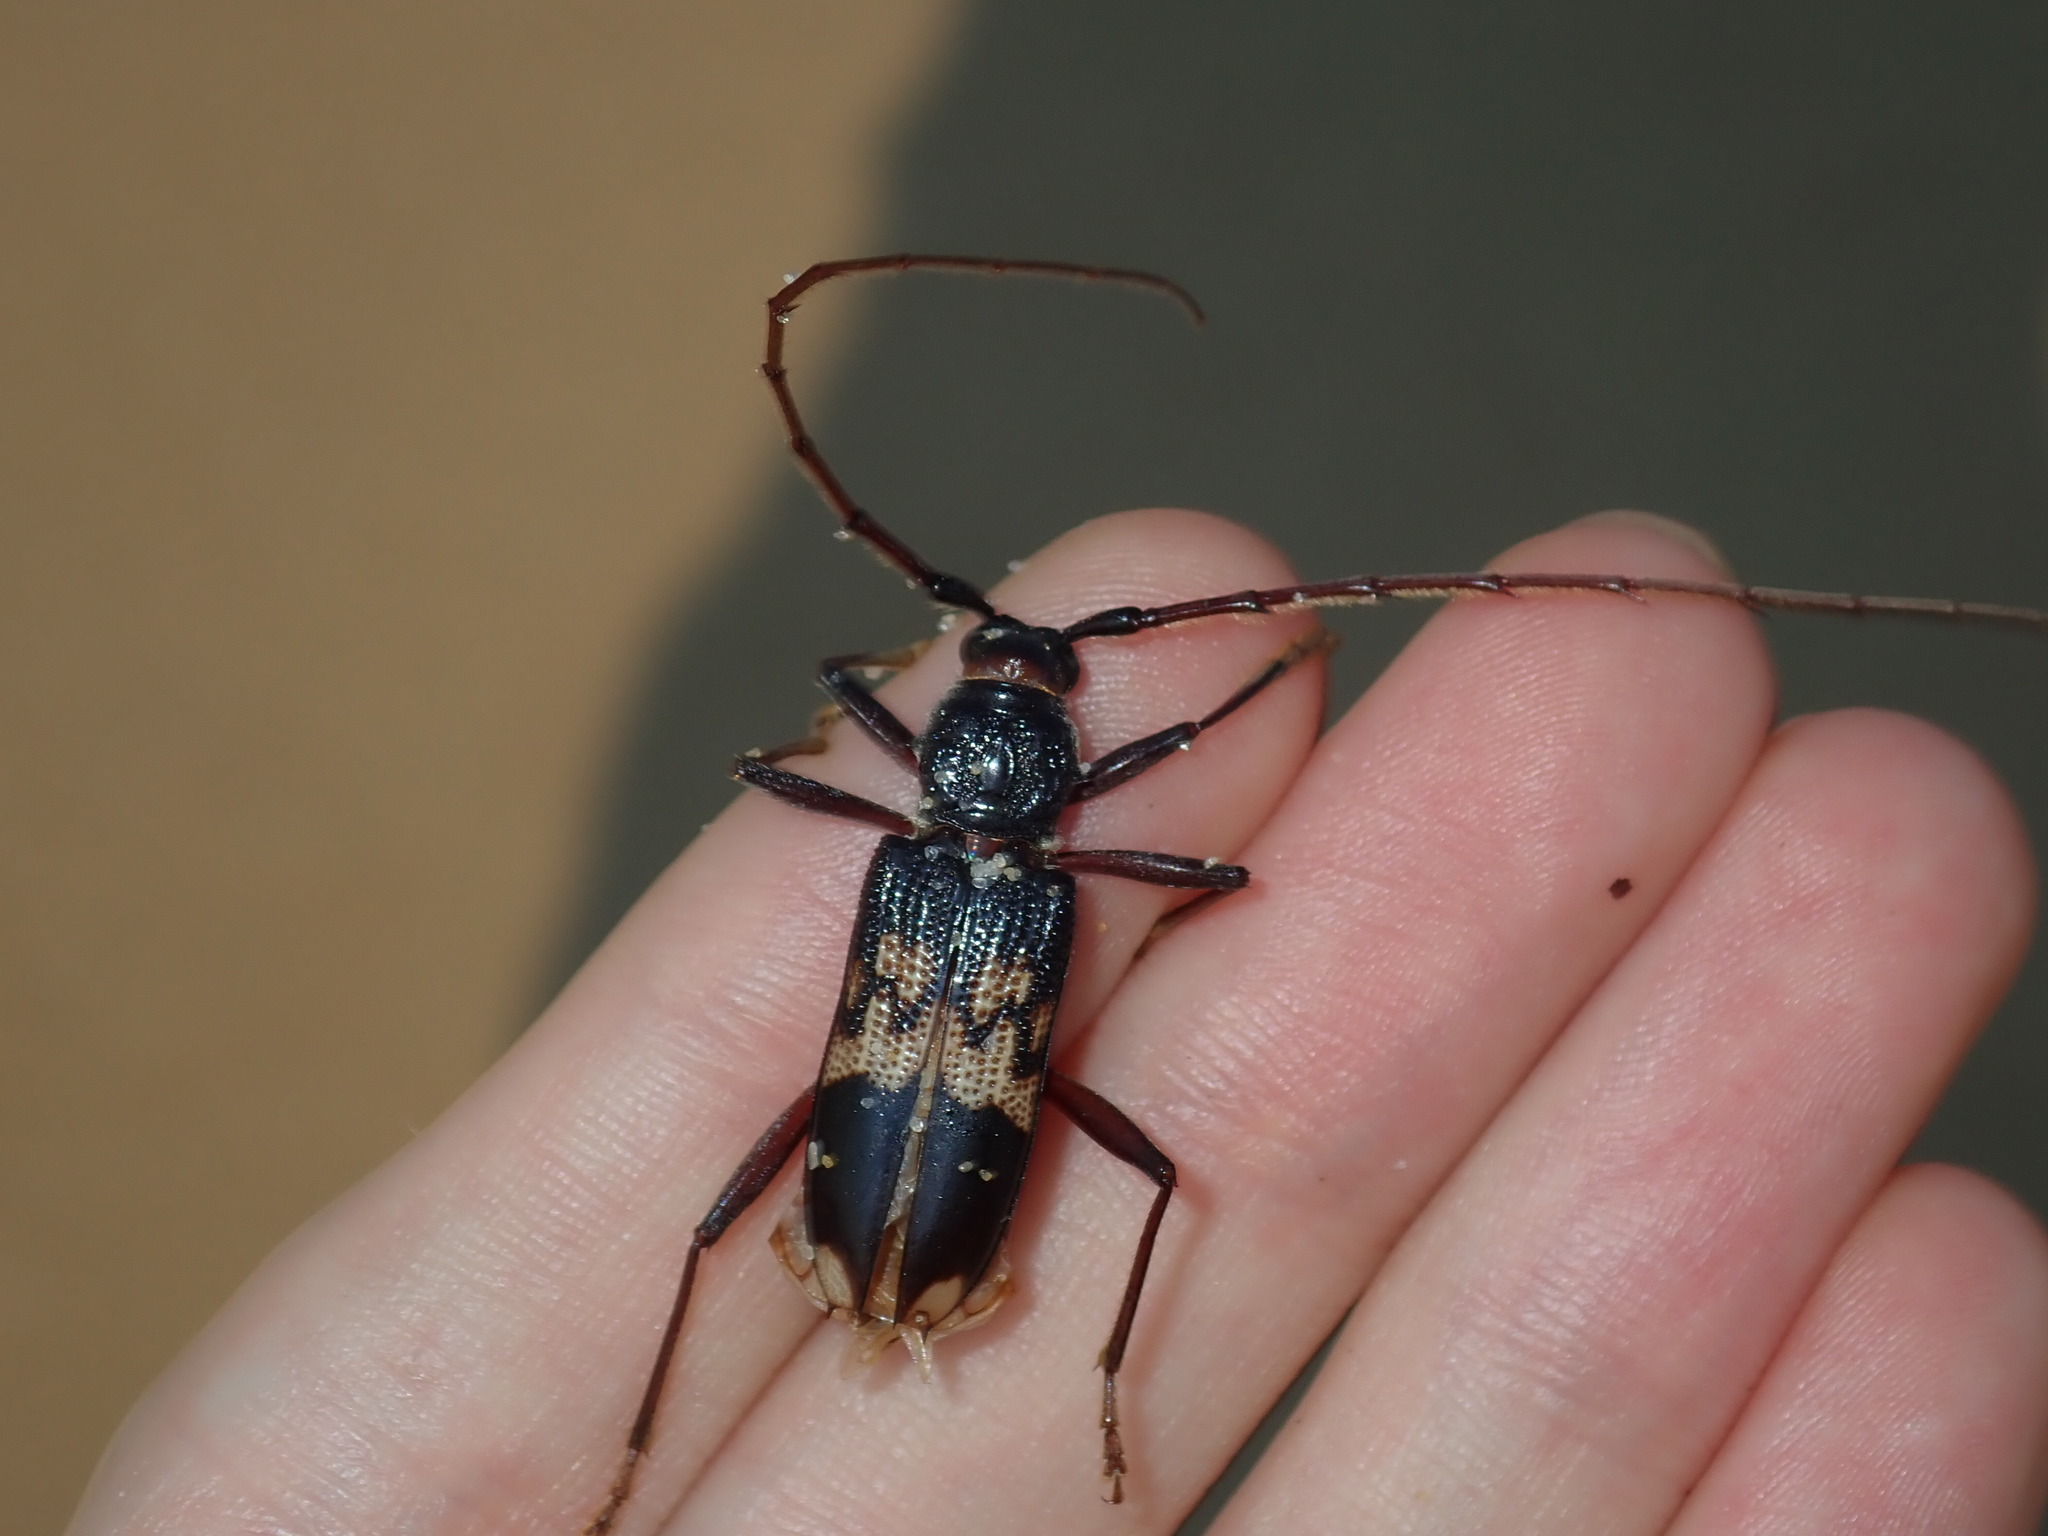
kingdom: Animalia
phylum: Arthropoda
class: Insecta
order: Coleoptera
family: Cerambycidae
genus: Phoracantha
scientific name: Phoracantha semipunctata
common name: Eucalyptus longhorn borer
